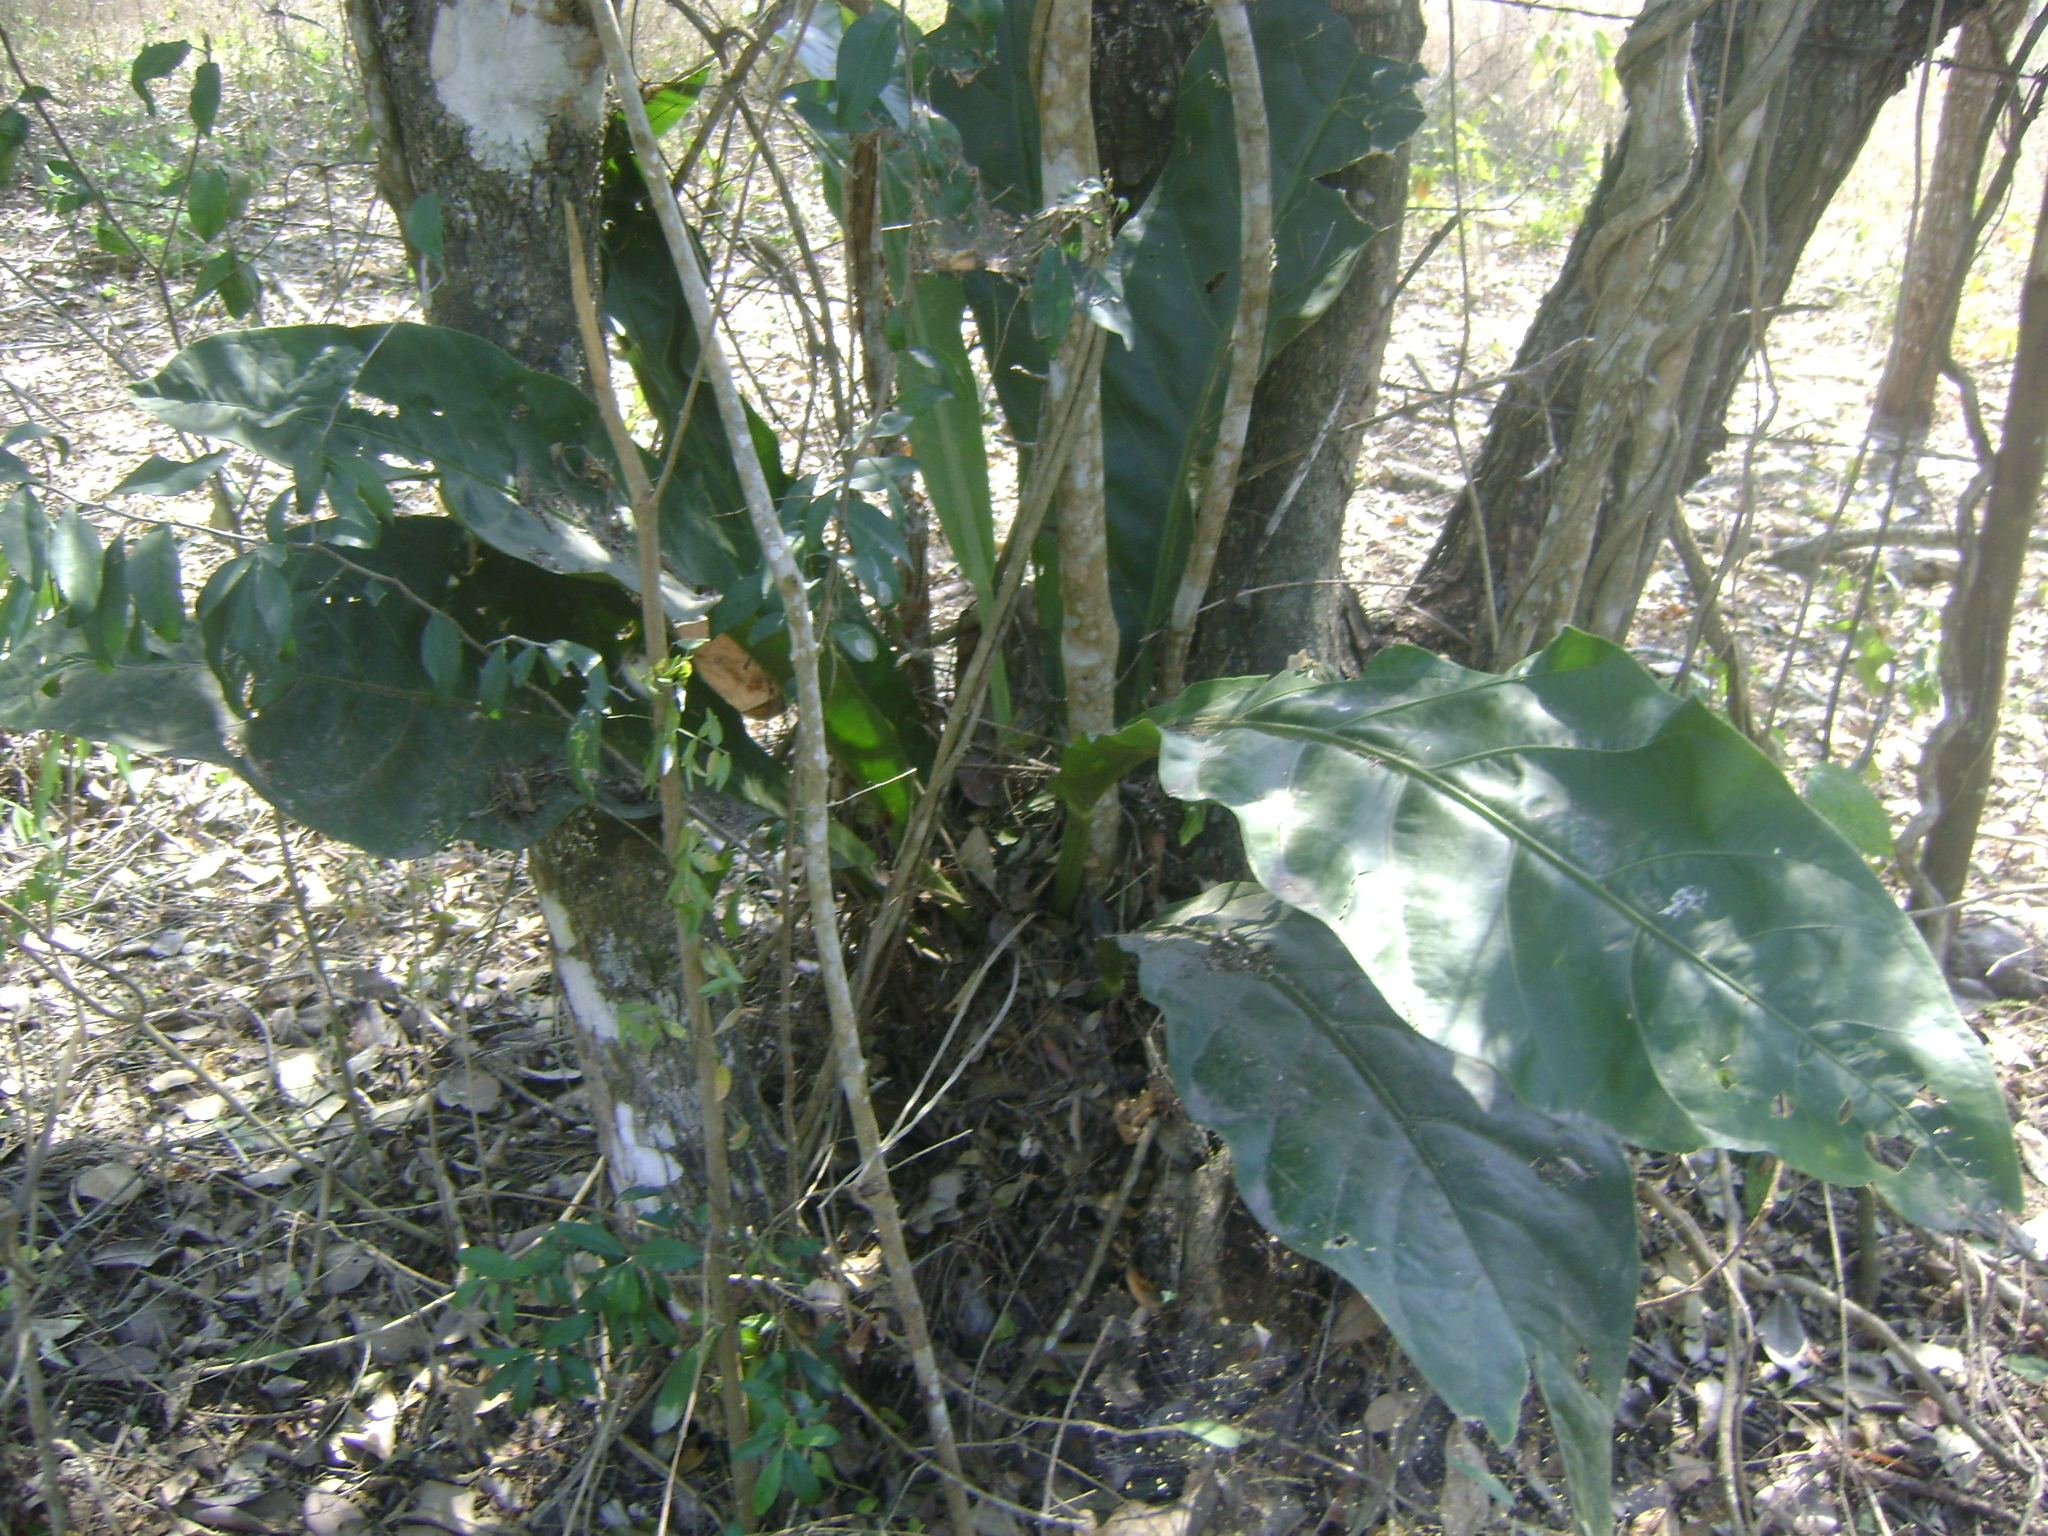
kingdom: Plantae
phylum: Tracheophyta
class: Liliopsida
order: Alismatales
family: Araceae
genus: Anthurium
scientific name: Anthurium schlechtendalii
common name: Laceleaf
